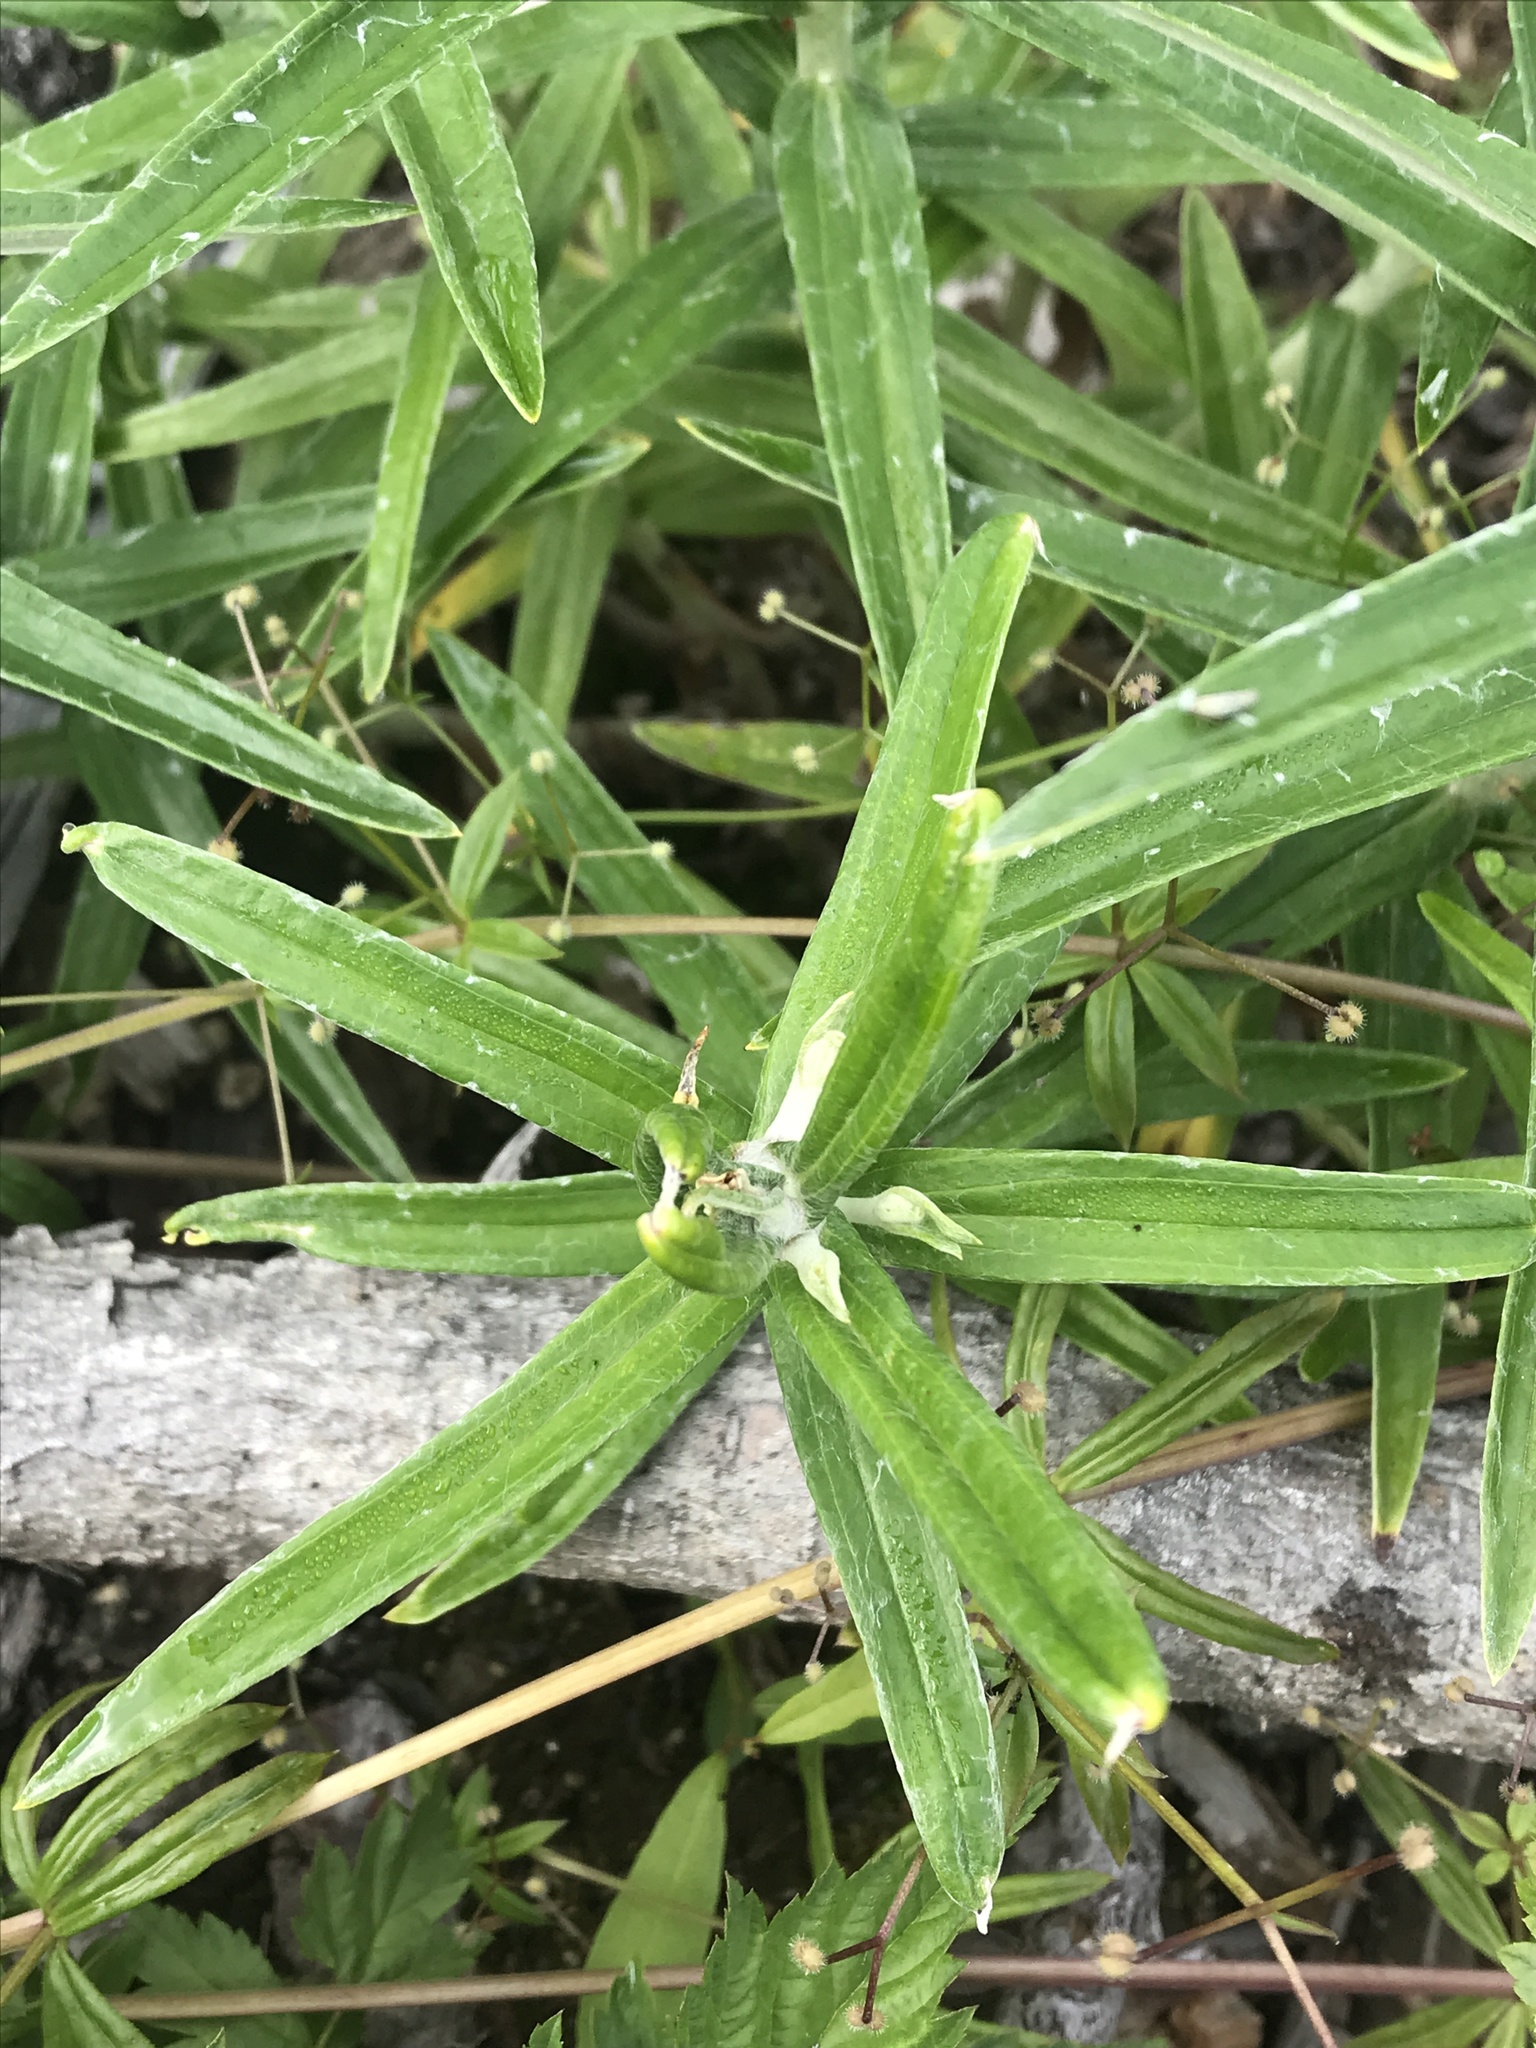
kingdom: Plantae
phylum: Tracheophyta
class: Magnoliopsida
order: Asterales
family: Asteraceae
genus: Anaphalis
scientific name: Anaphalis margaritacea
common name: Pearly everlasting
